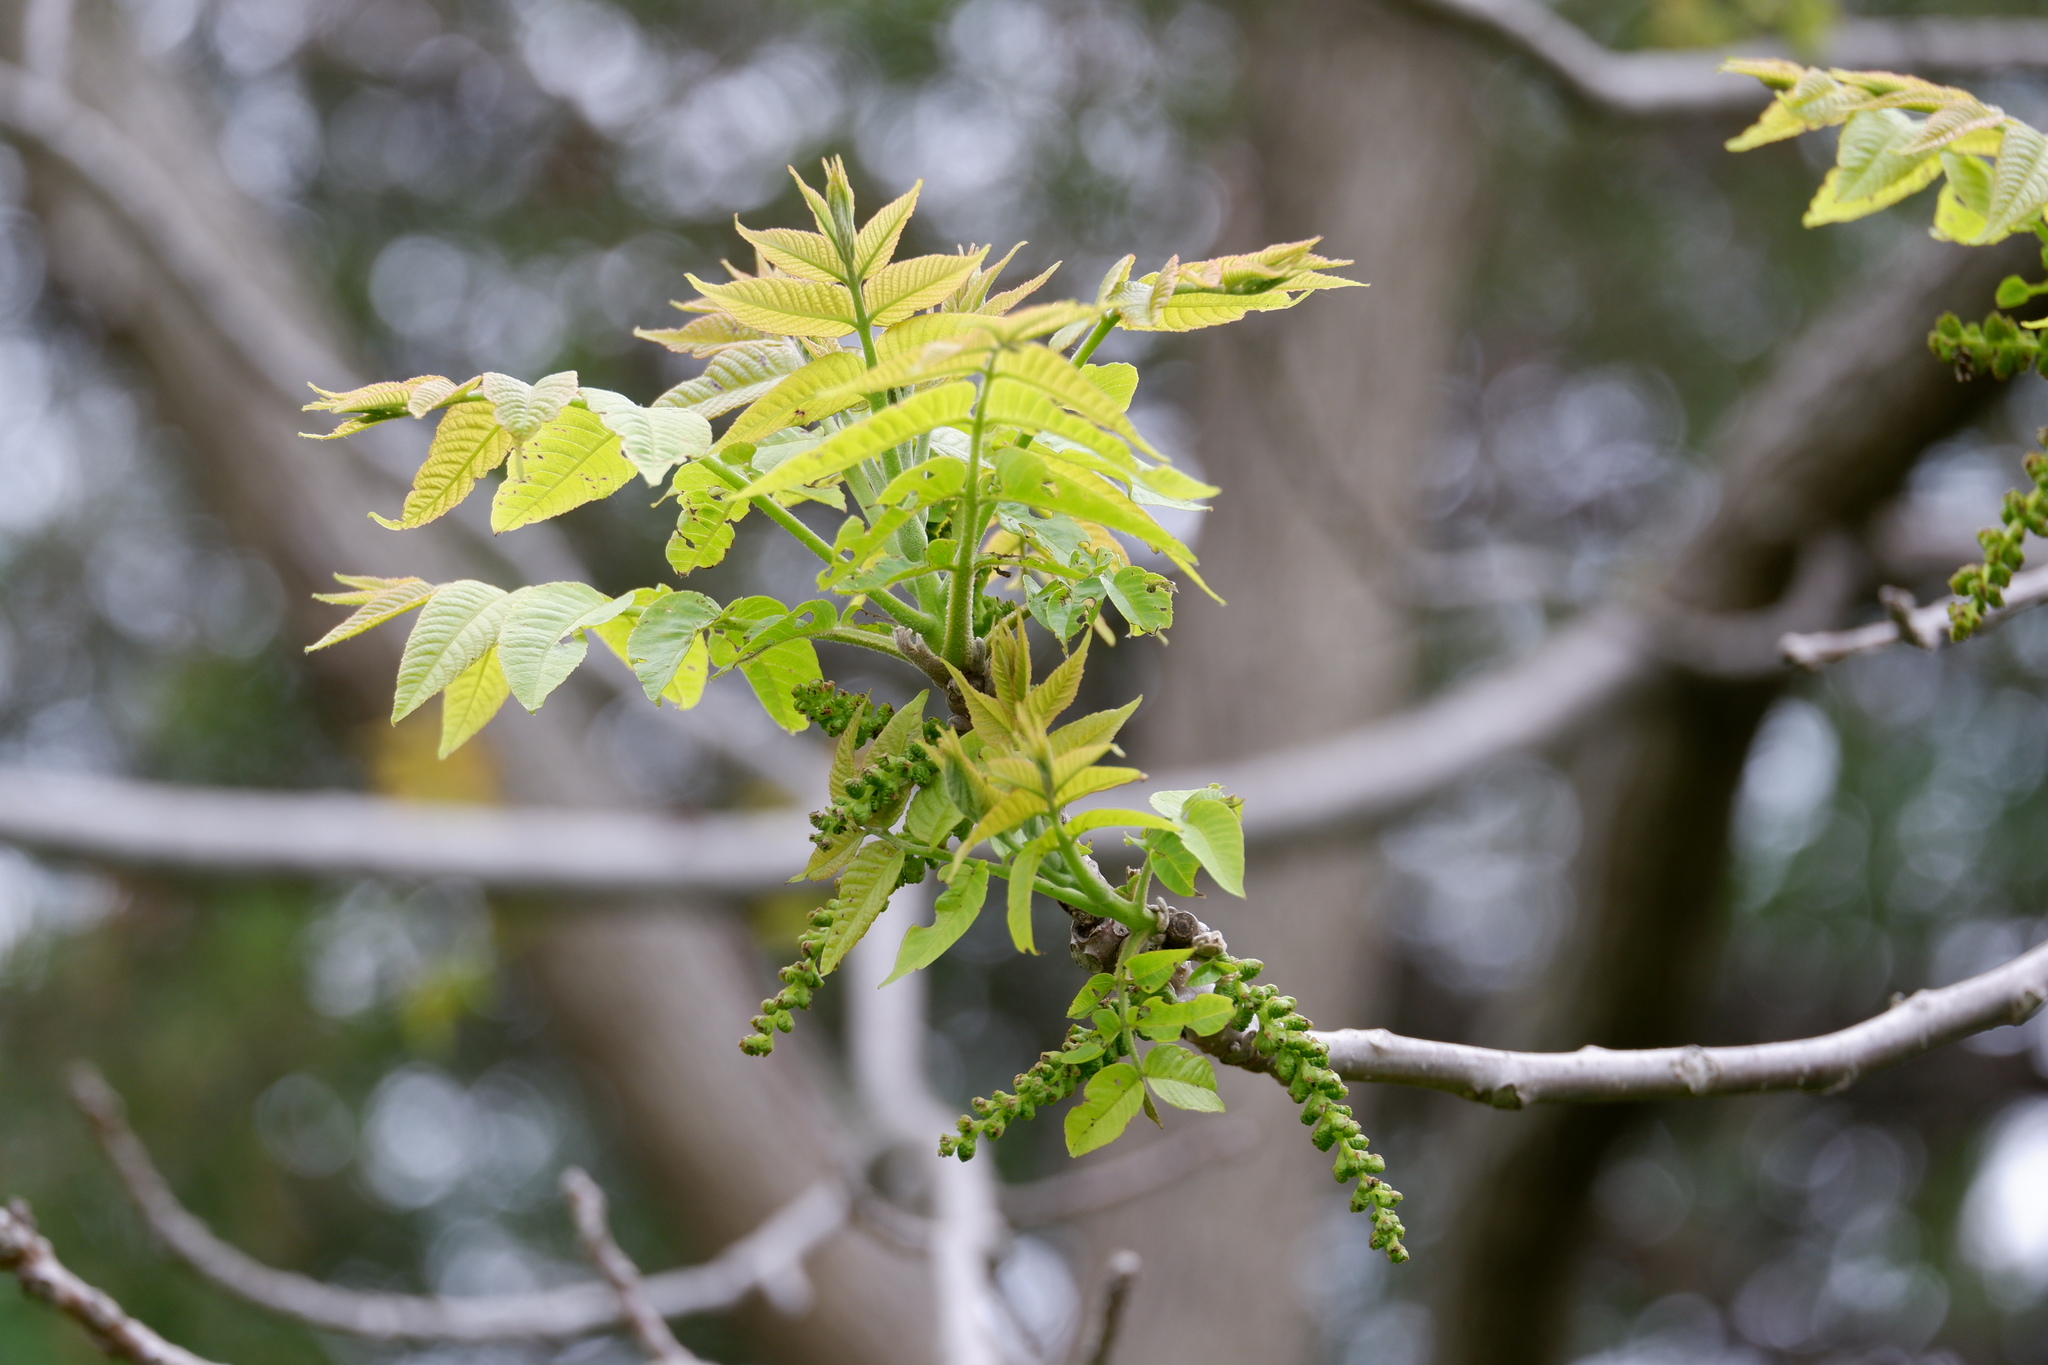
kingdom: Plantae
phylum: Tracheophyta
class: Magnoliopsida
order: Fagales
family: Juglandaceae
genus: Juglans
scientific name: Juglans nigra
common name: Black walnut
